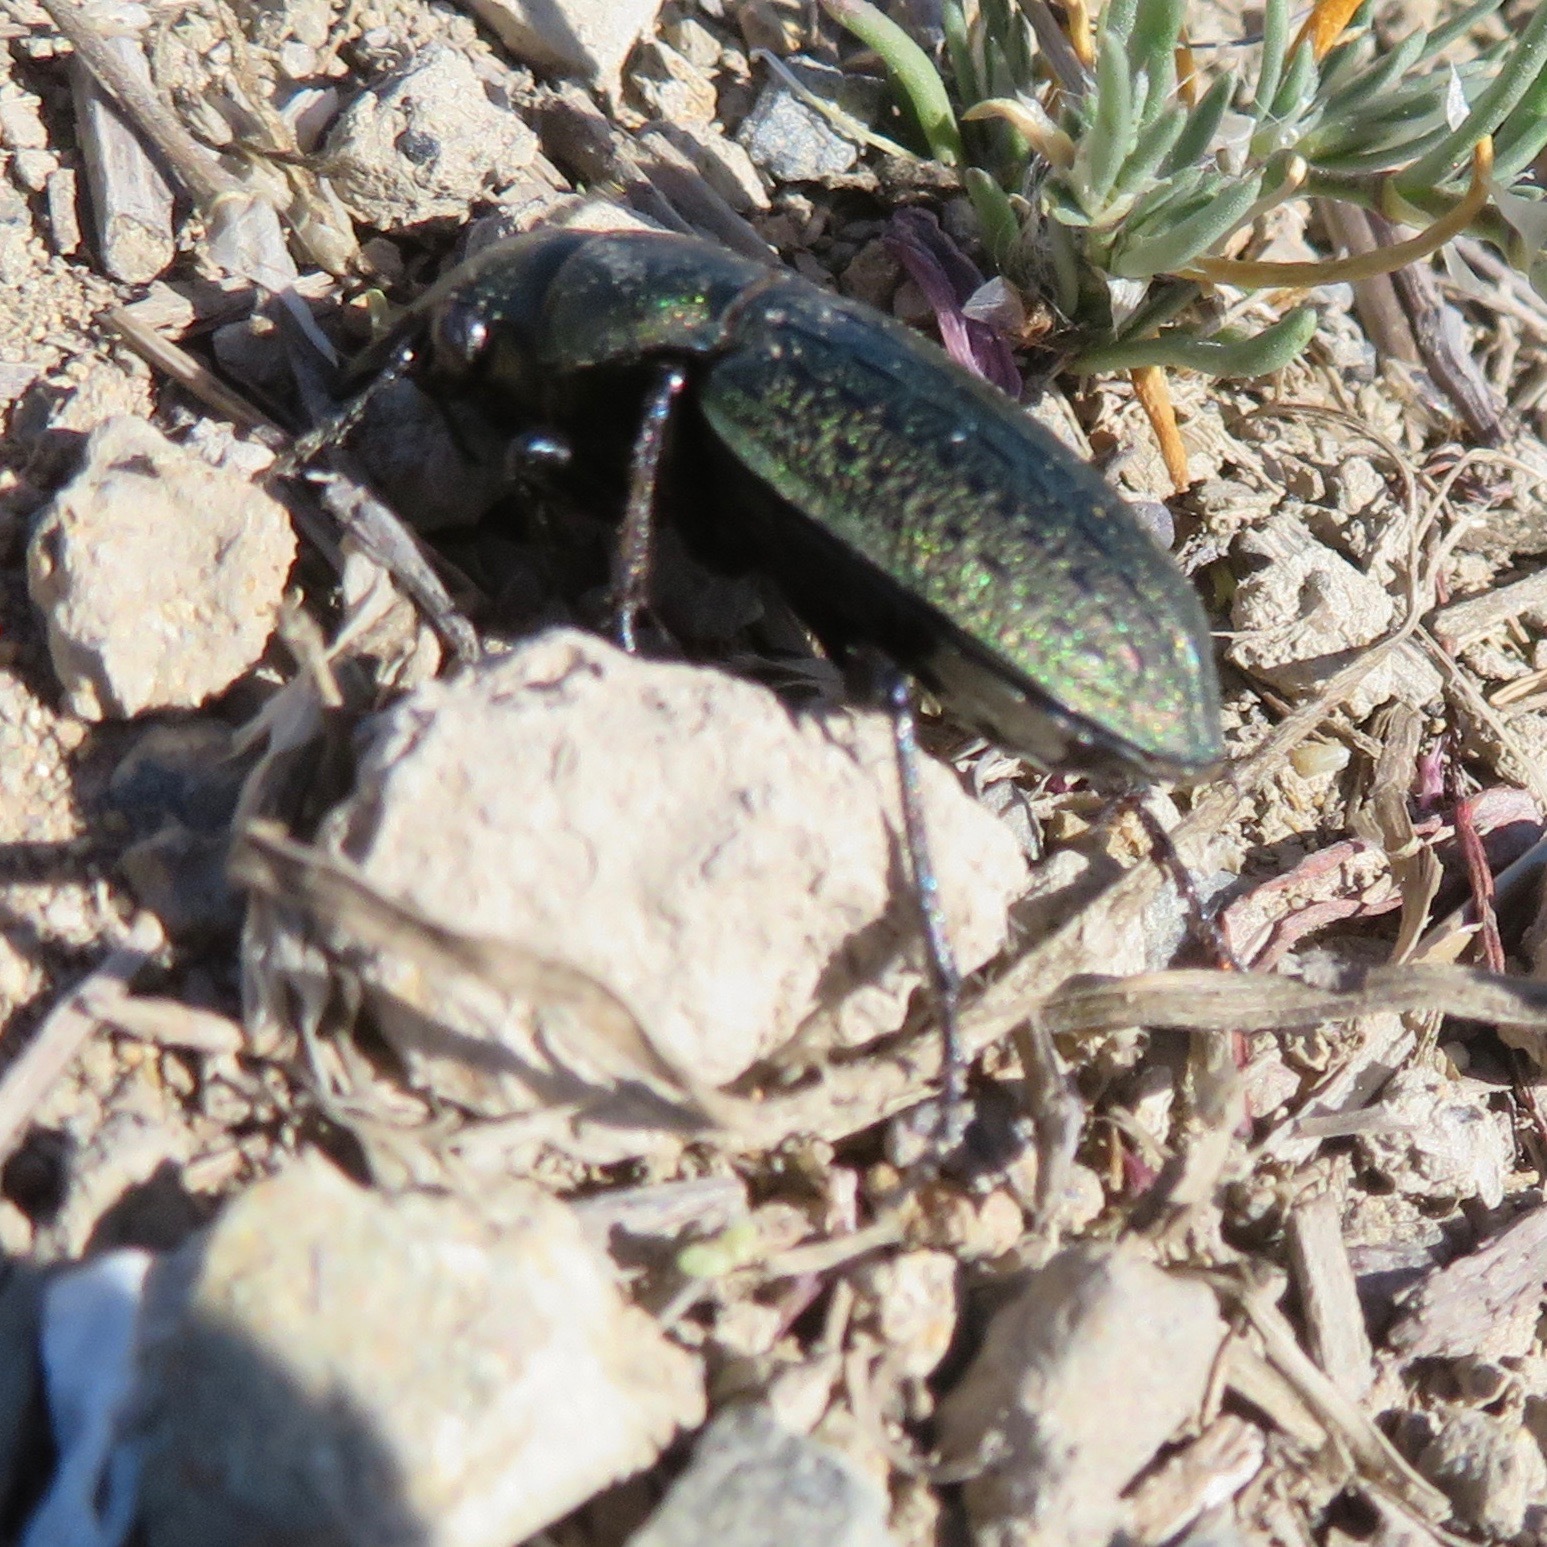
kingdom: Animalia
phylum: Arthropoda
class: Insecta
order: Coleoptera
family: Carabidae
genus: Calosoma
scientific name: Calosoma cancellatum
